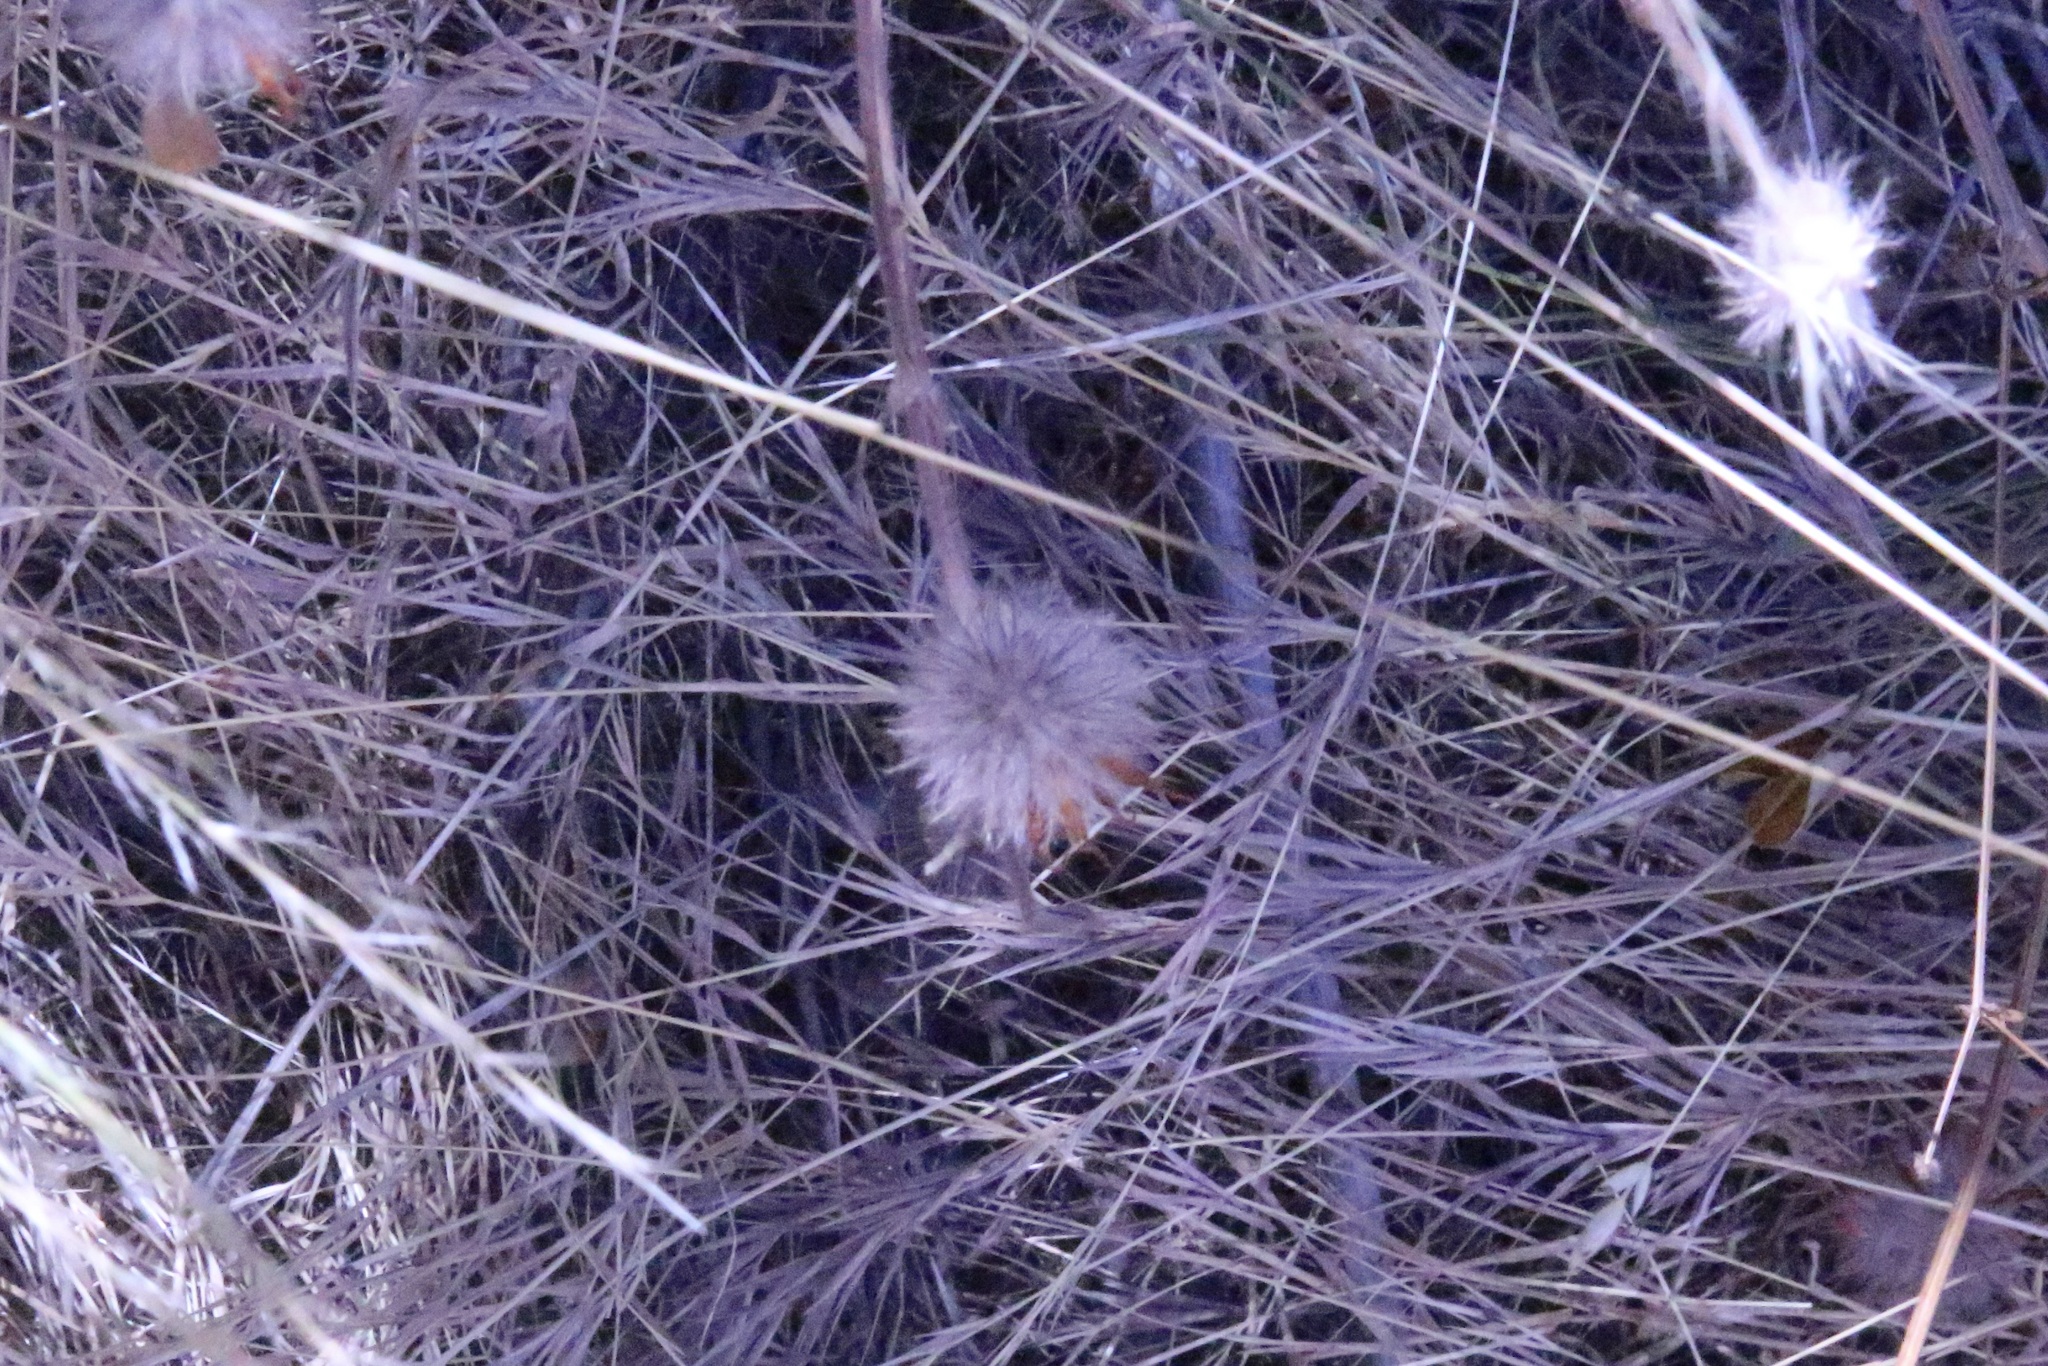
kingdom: Plantae
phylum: Tracheophyta
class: Magnoliopsida
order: Fabales
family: Fabaceae
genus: Trifolium
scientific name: Trifolium hirtum
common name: Rose clover
